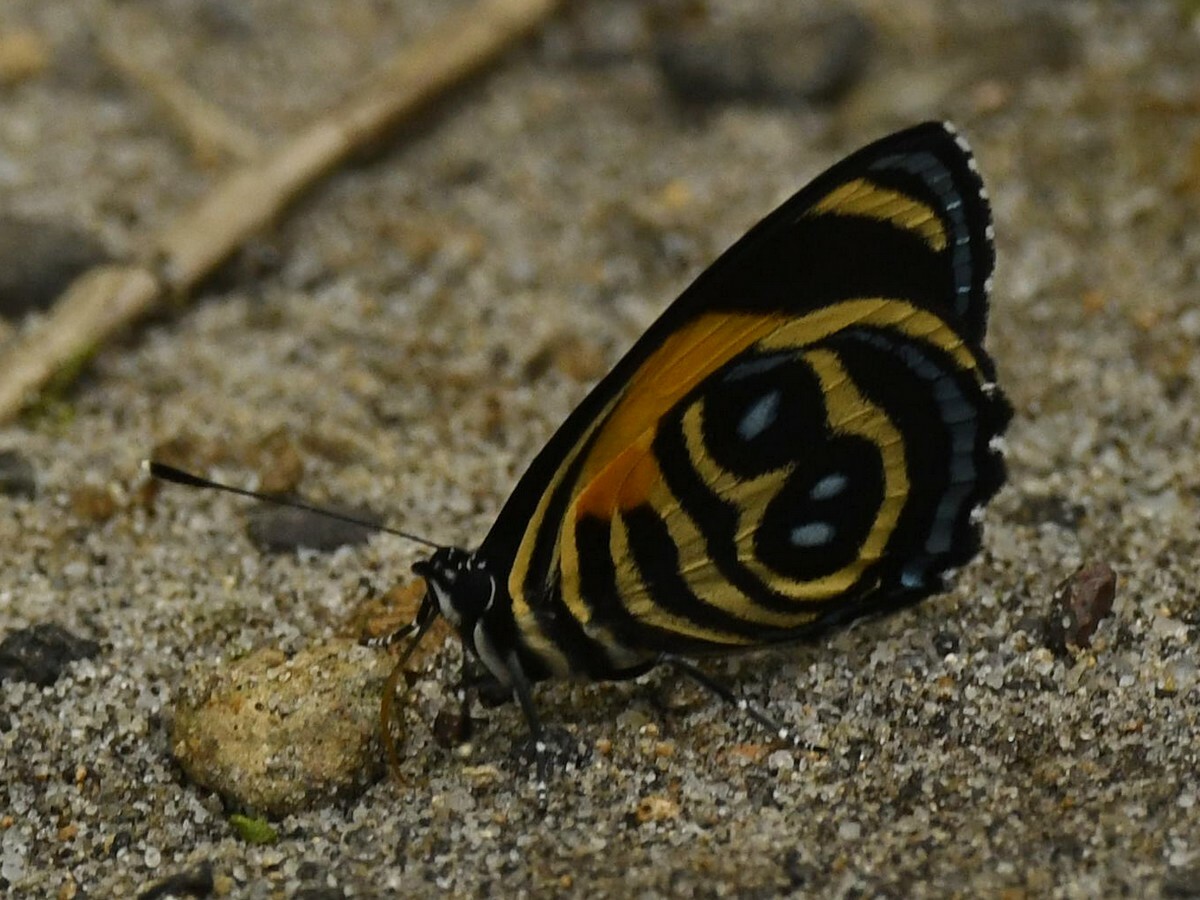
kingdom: Animalia
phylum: Arthropoda
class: Insecta
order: Lepidoptera
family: Nymphalidae
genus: Catagramma
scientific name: Catagramma tolima
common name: Blue-and-orange eighty-eight
